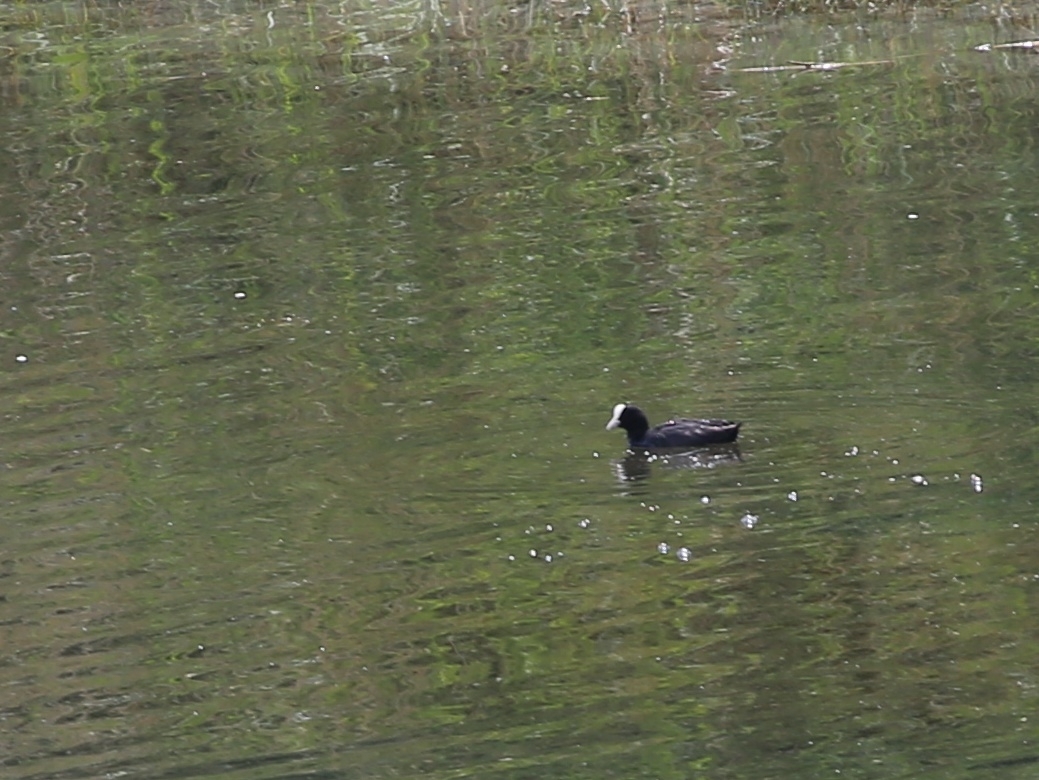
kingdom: Animalia
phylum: Chordata
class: Aves
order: Gruiformes
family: Rallidae
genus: Fulica
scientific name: Fulica atra
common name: Eurasian coot
